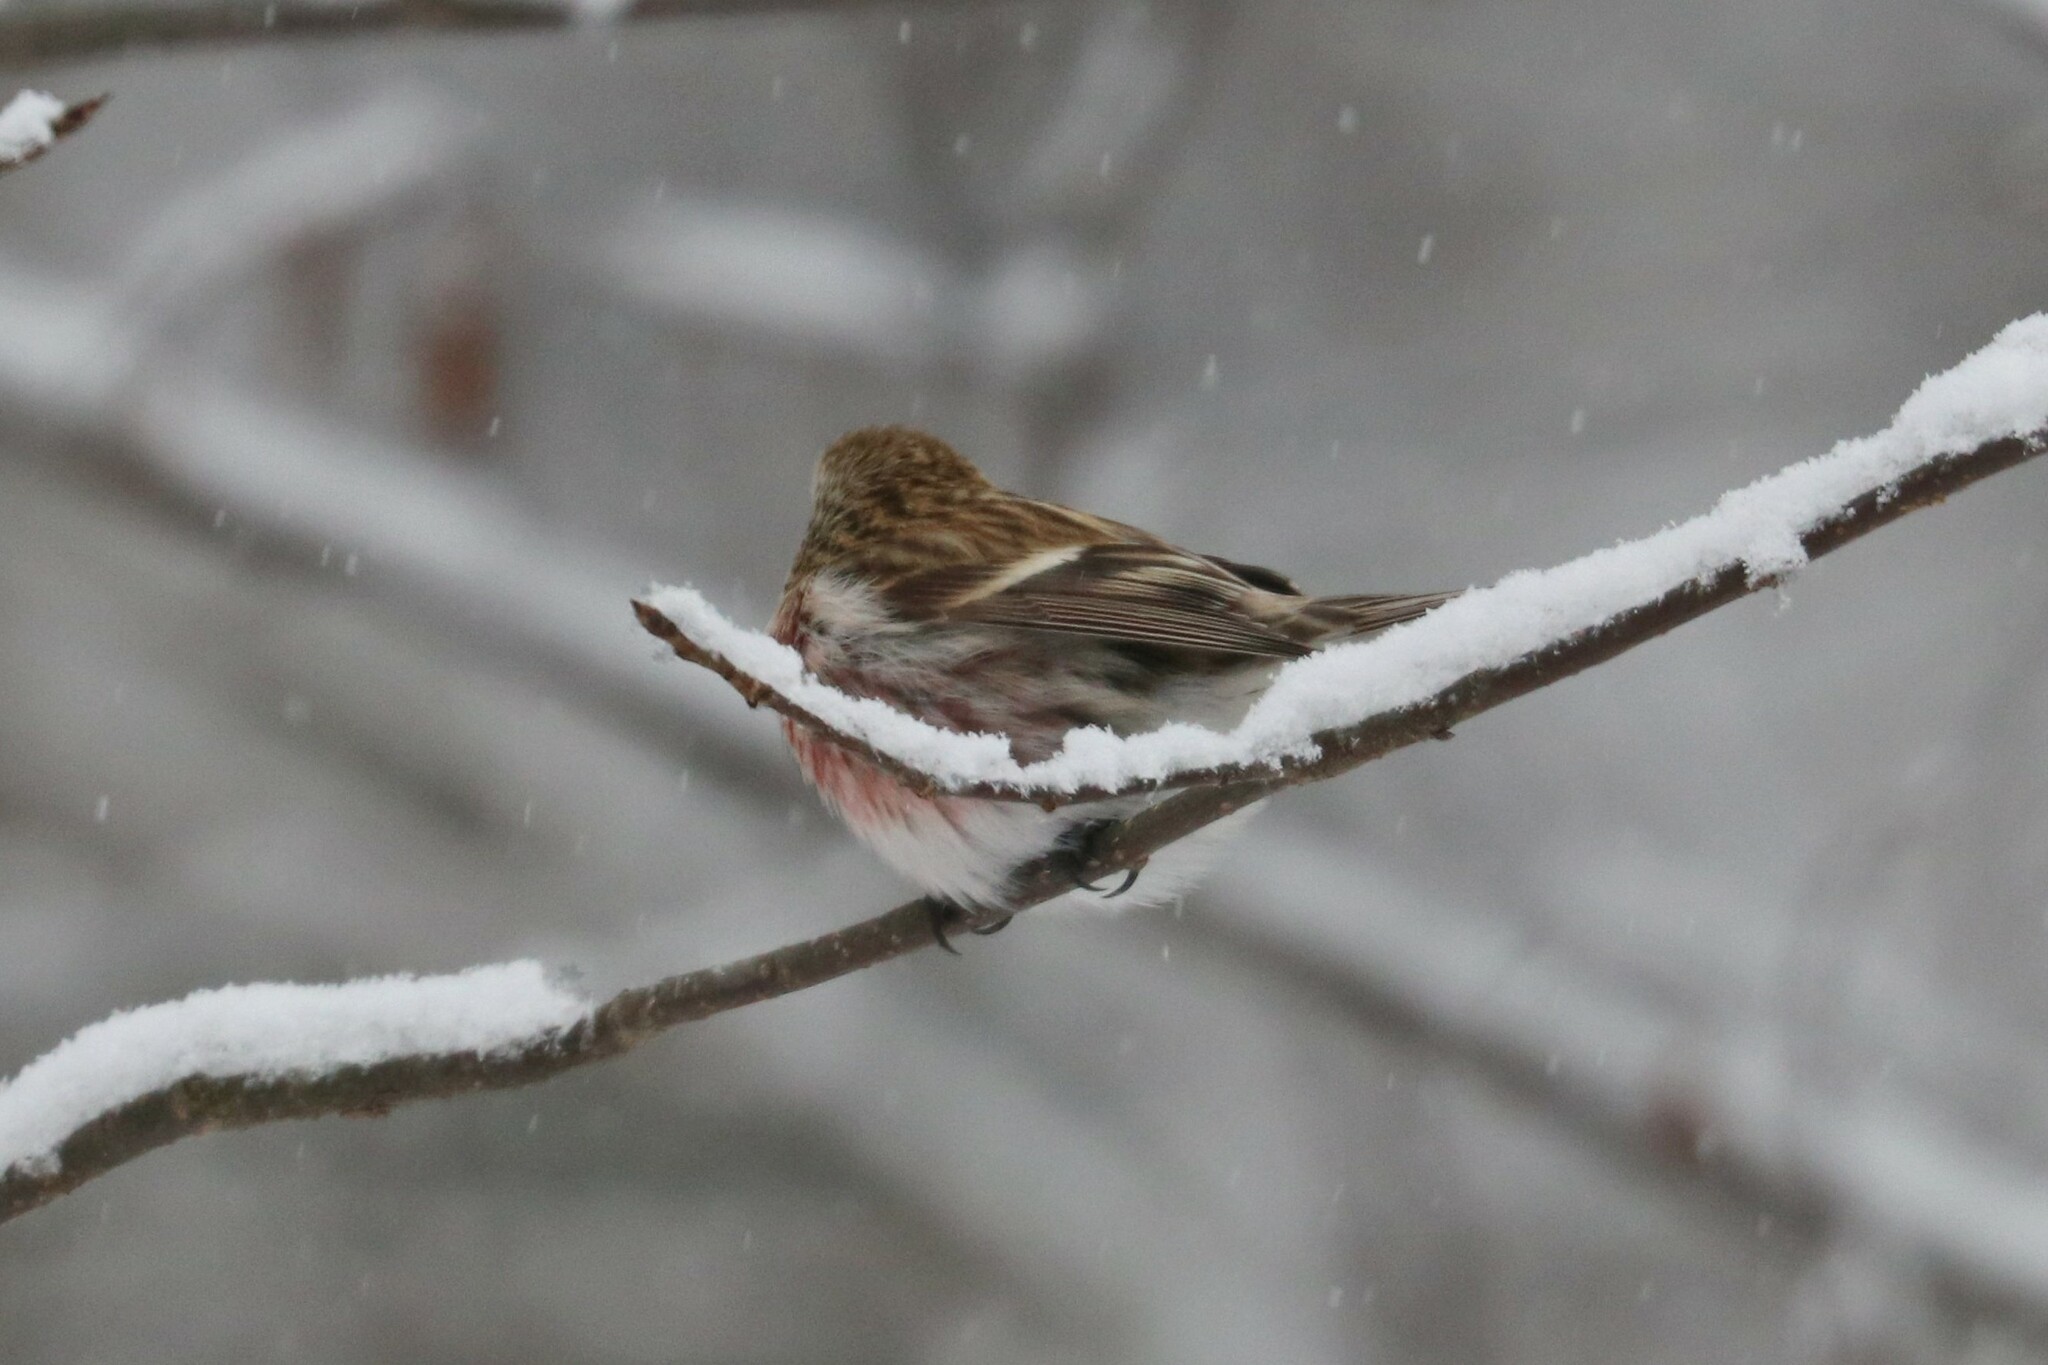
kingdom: Animalia
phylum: Chordata
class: Aves
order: Passeriformes
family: Fringillidae
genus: Acanthis
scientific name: Acanthis flammea
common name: Common redpoll
